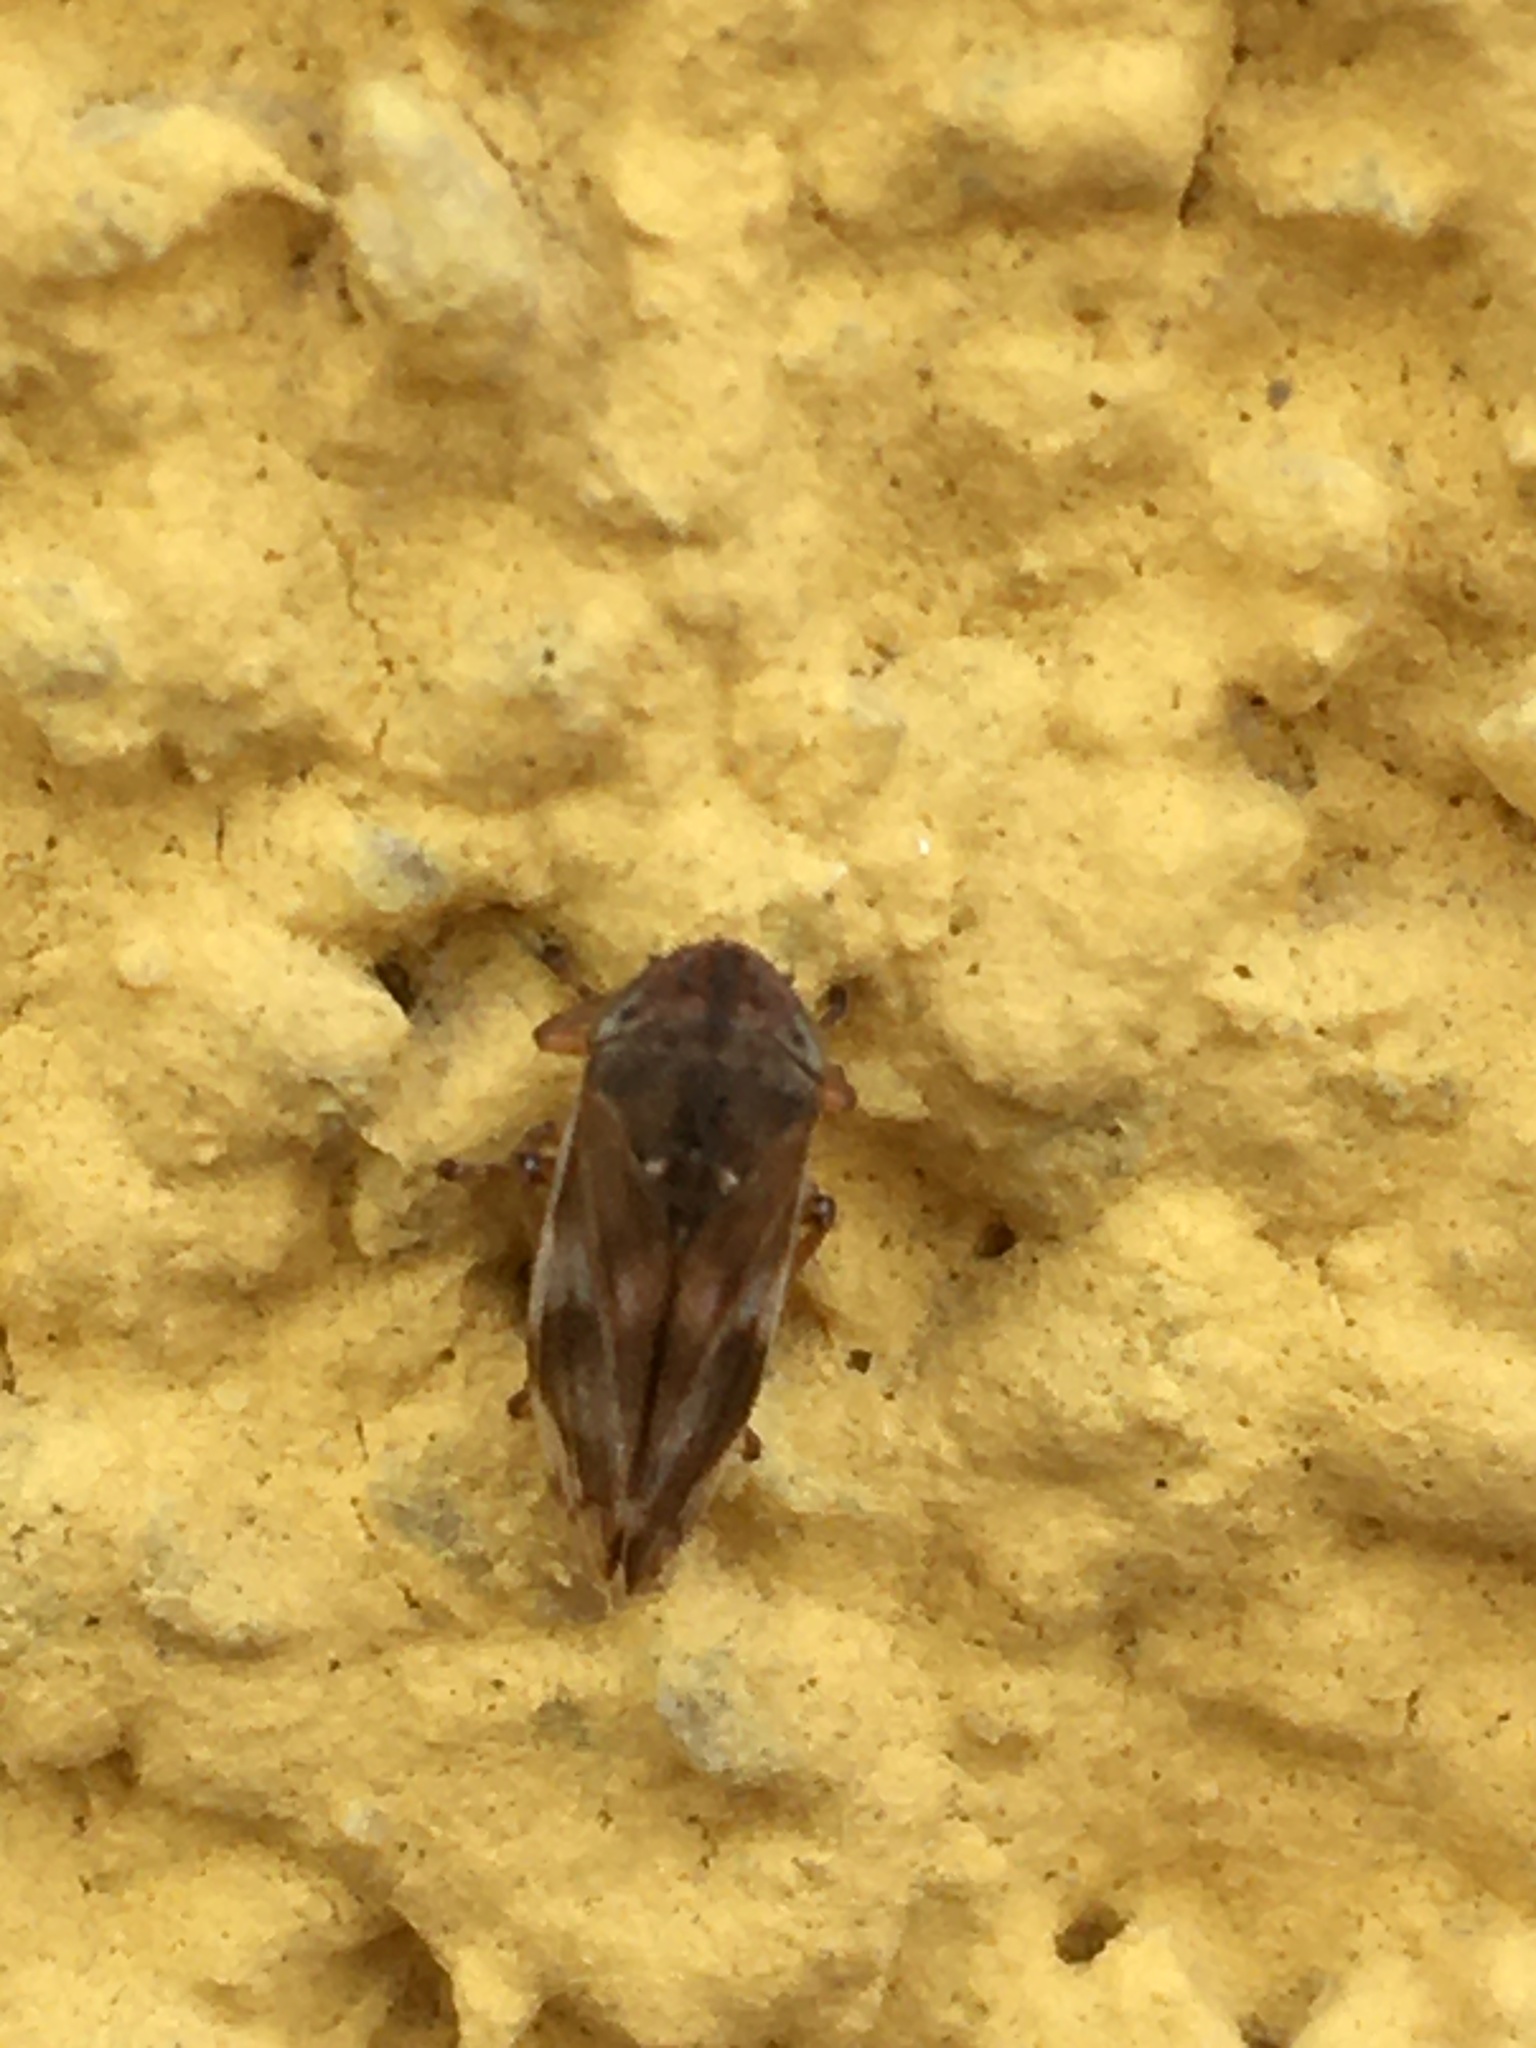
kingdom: Animalia
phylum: Arthropoda
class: Insecta
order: Hemiptera
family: Aphrophoridae
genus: Neophilaenus
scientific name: Neophilaenus campestris
